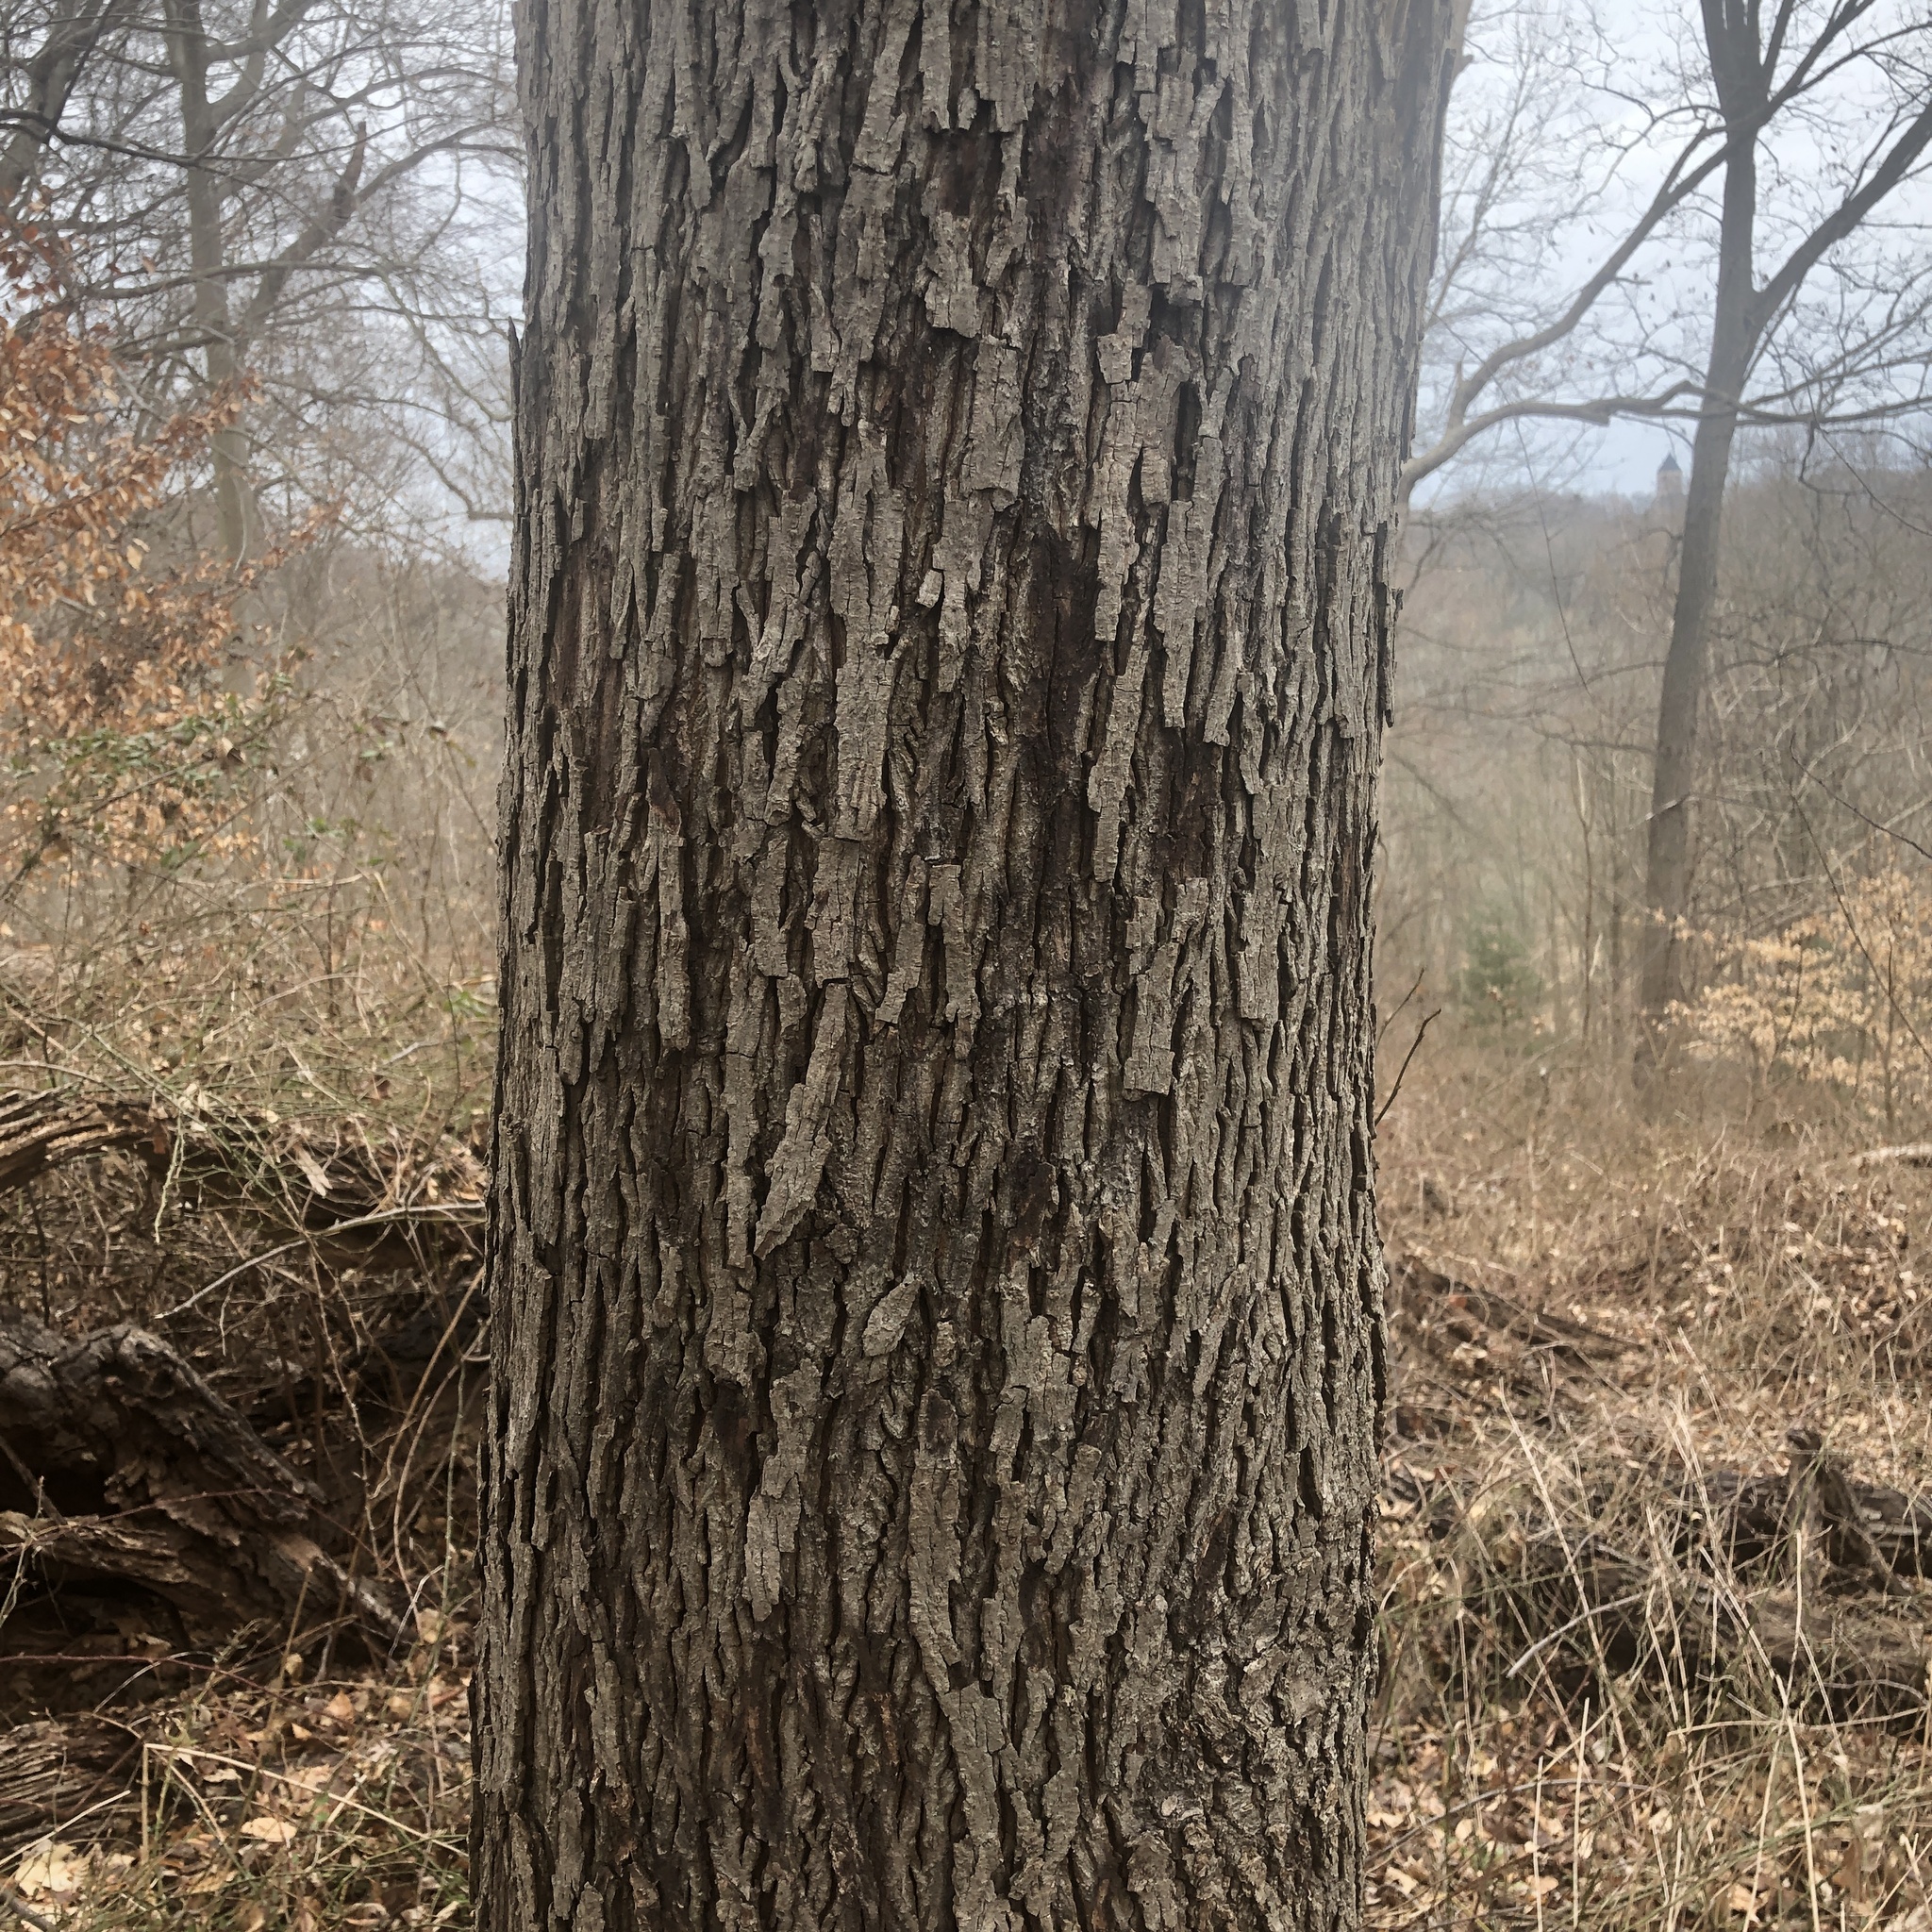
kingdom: Plantae
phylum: Tracheophyta
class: Magnoliopsida
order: Fagales
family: Juglandaceae
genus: Carya
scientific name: Carya glabra
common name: Pignut hickory
